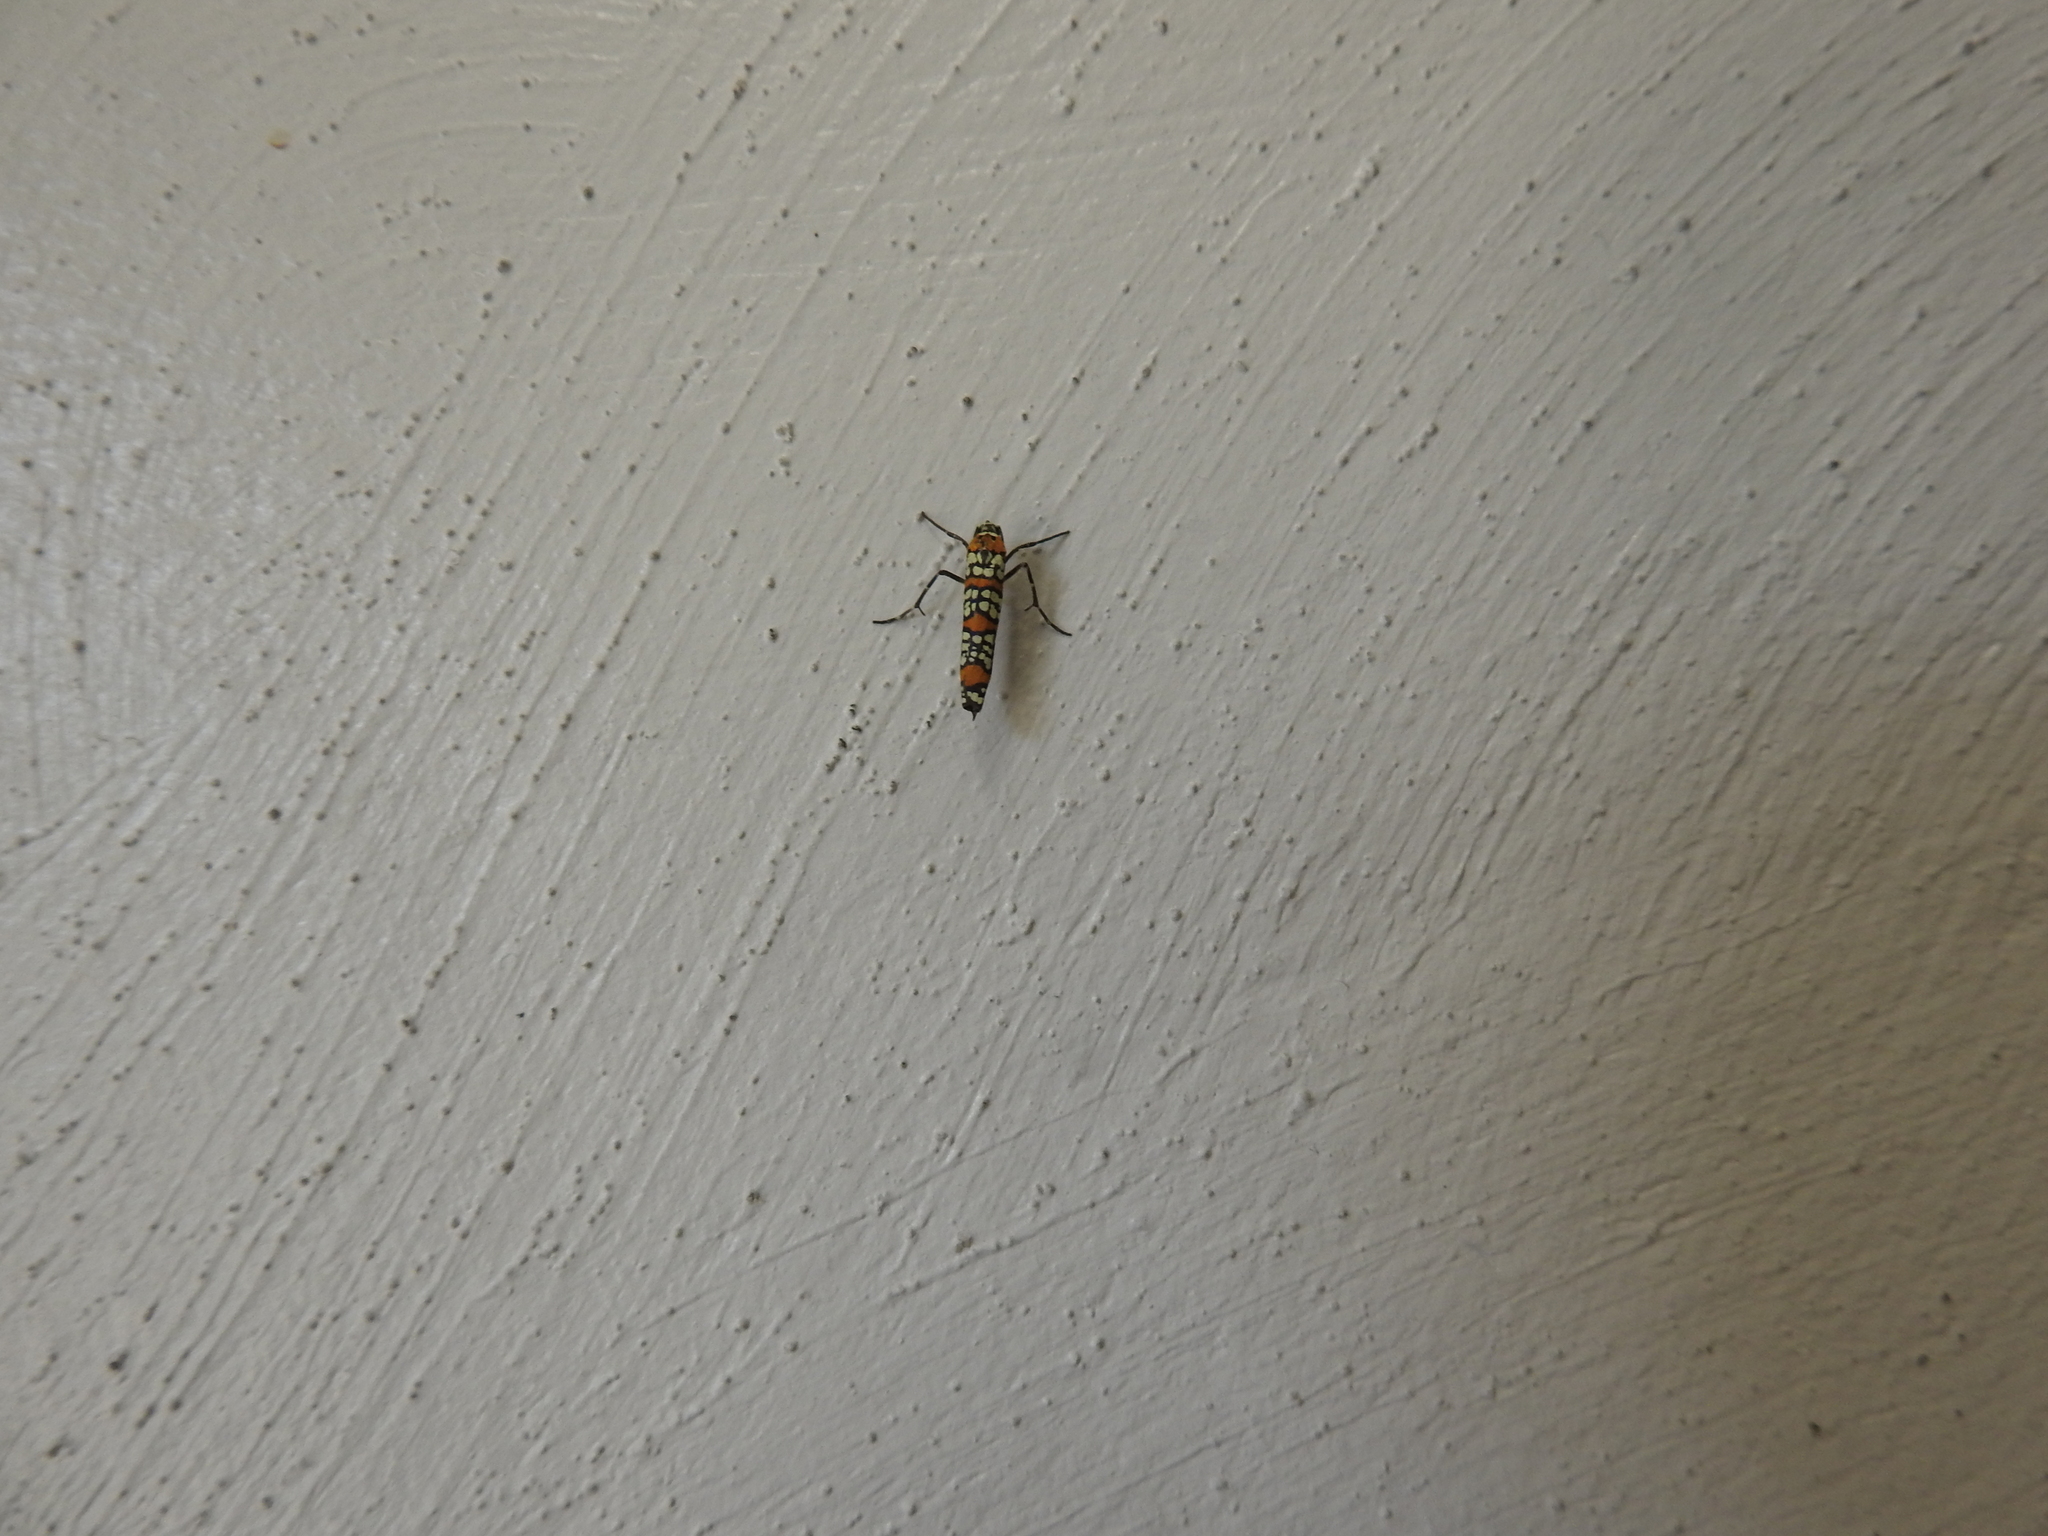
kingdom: Animalia
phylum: Arthropoda
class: Insecta
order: Lepidoptera
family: Attevidae
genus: Atteva
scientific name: Atteva punctella
